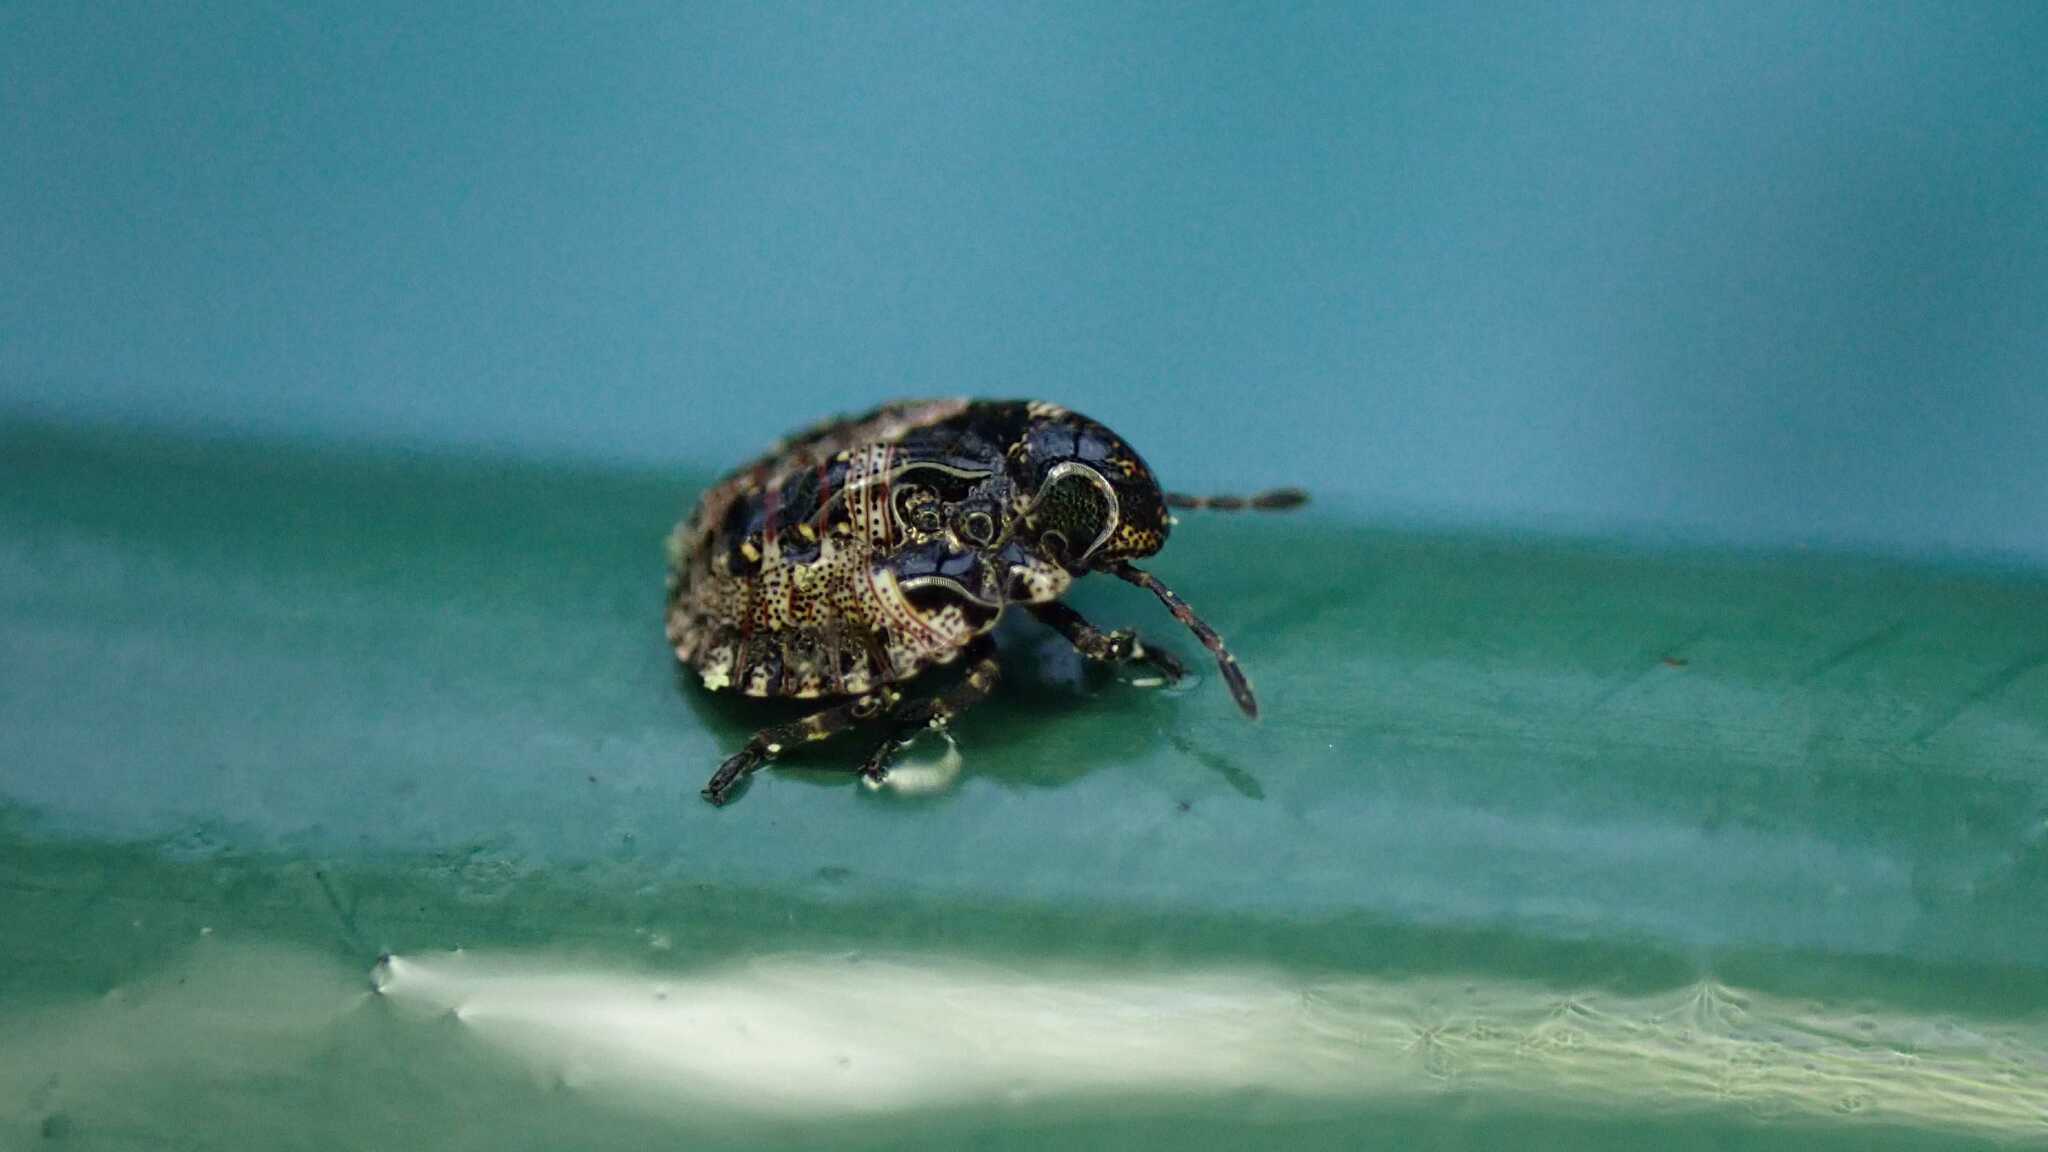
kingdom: Animalia
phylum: Arthropoda
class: Insecta
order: Hemiptera
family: Pentatomidae
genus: Pentatoma
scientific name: Pentatoma rufipes
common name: Forest bug
